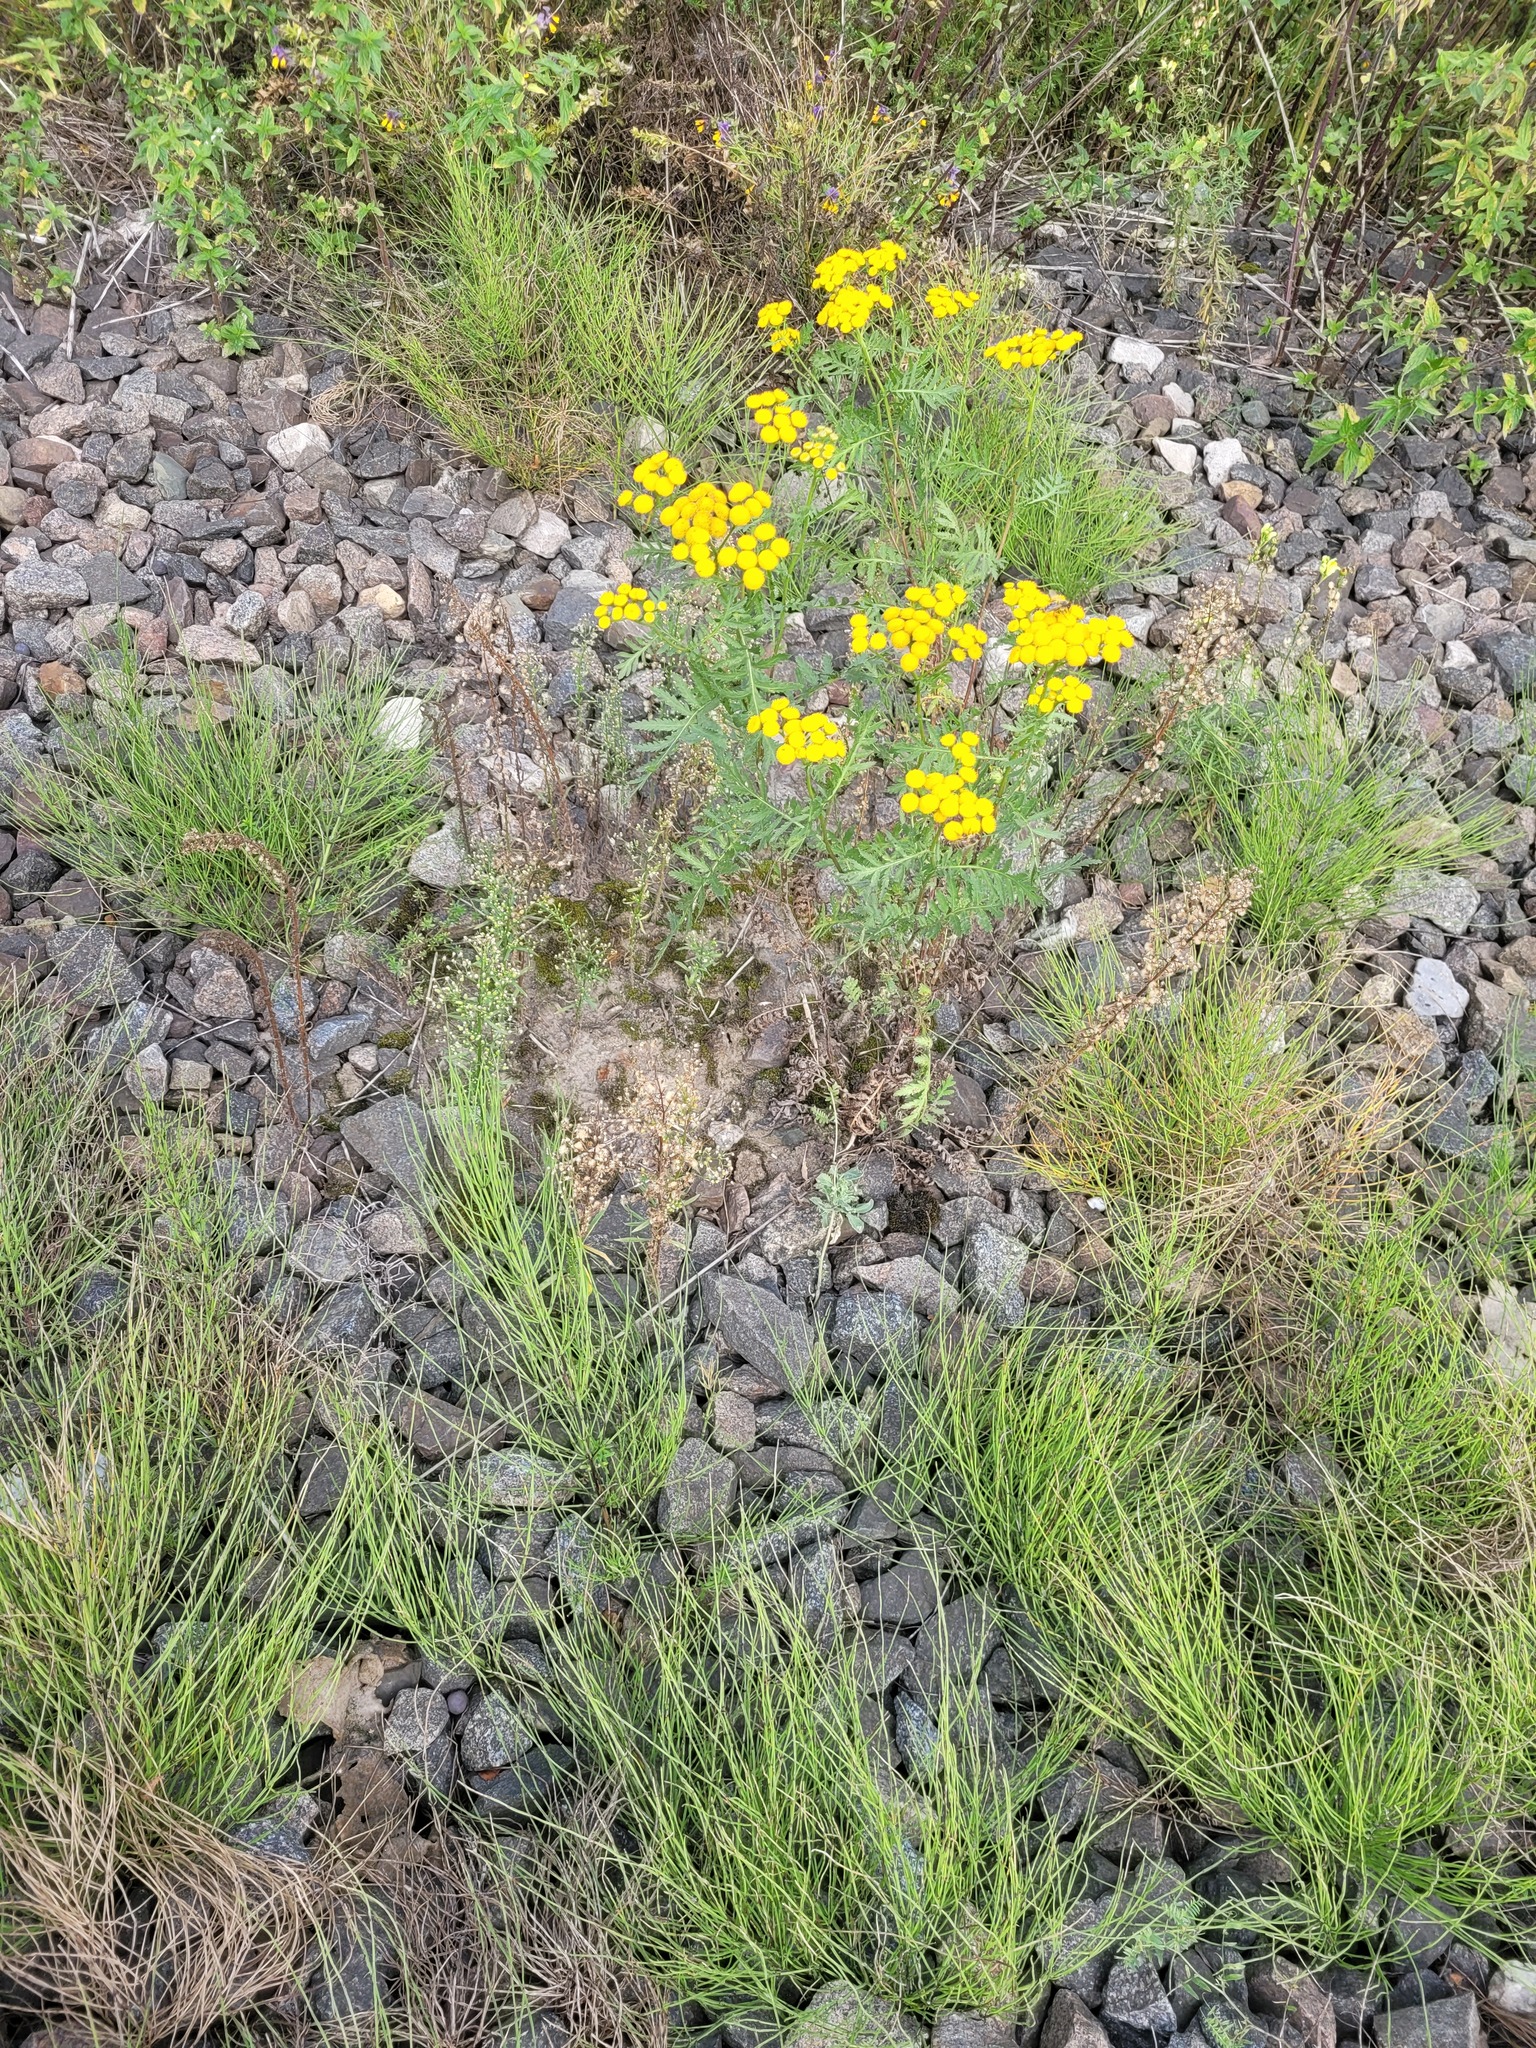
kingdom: Plantae
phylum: Tracheophyta
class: Polypodiopsida
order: Equisetales
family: Equisetaceae
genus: Equisetum
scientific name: Equisetum arvense
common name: Field horsetail
